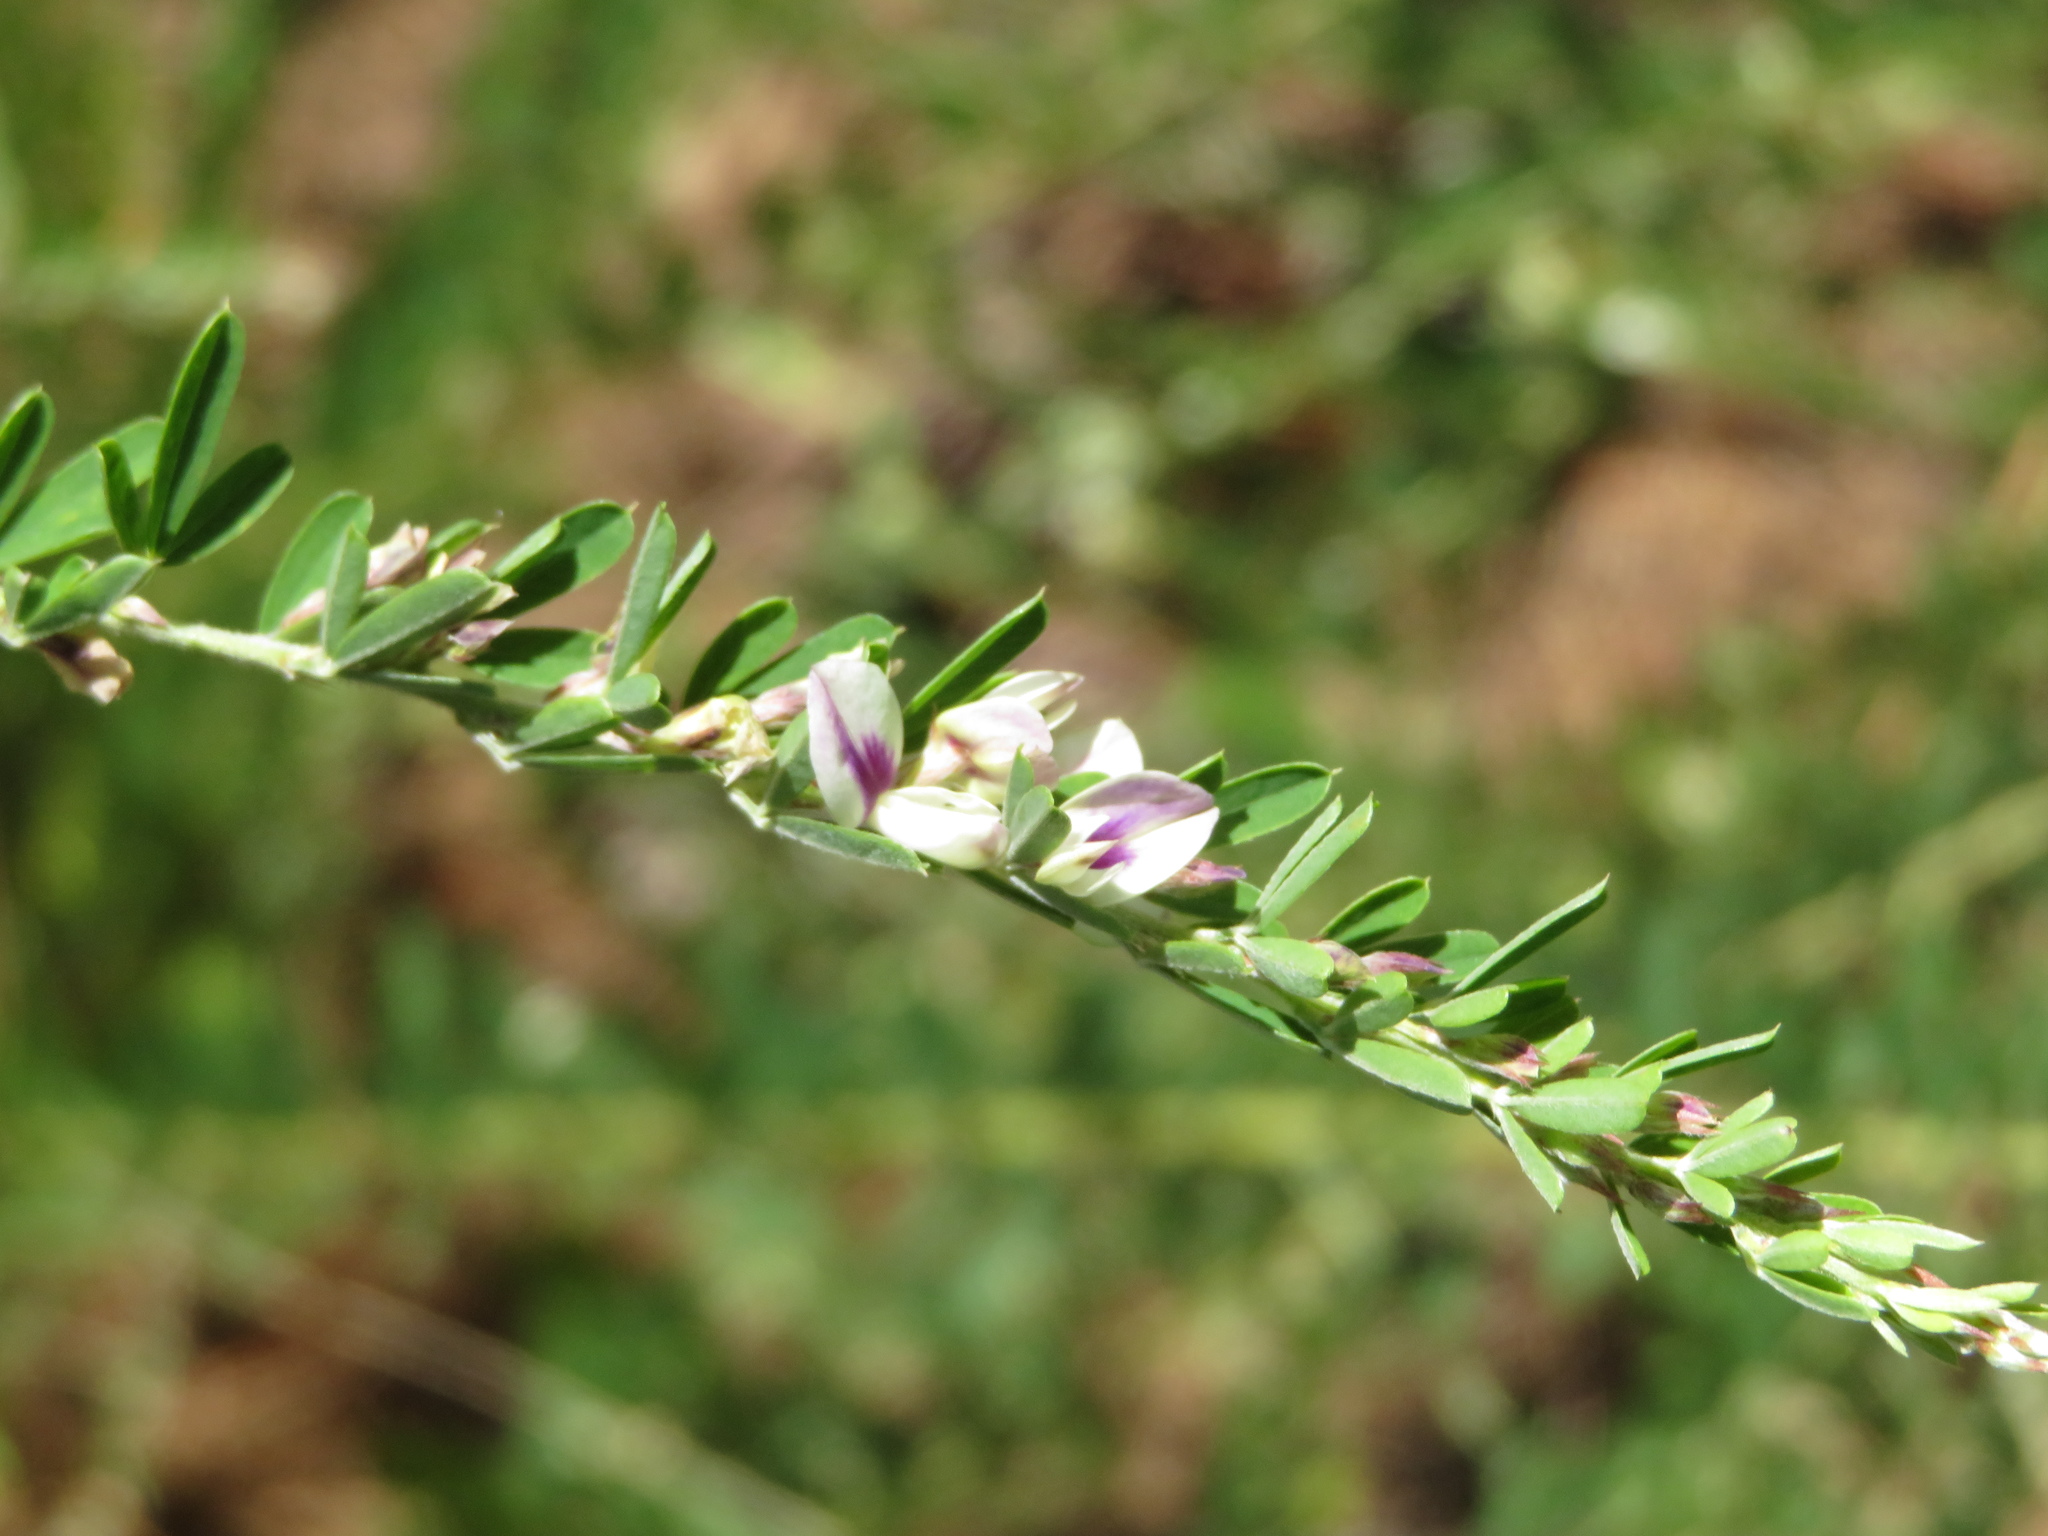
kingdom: Plantae
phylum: Tracheophyta
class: Magnoliopsida
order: Fabales
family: Fabaceae
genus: Lespedeza
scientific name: Lespedeza cuneata
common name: Chinese bush-clover
